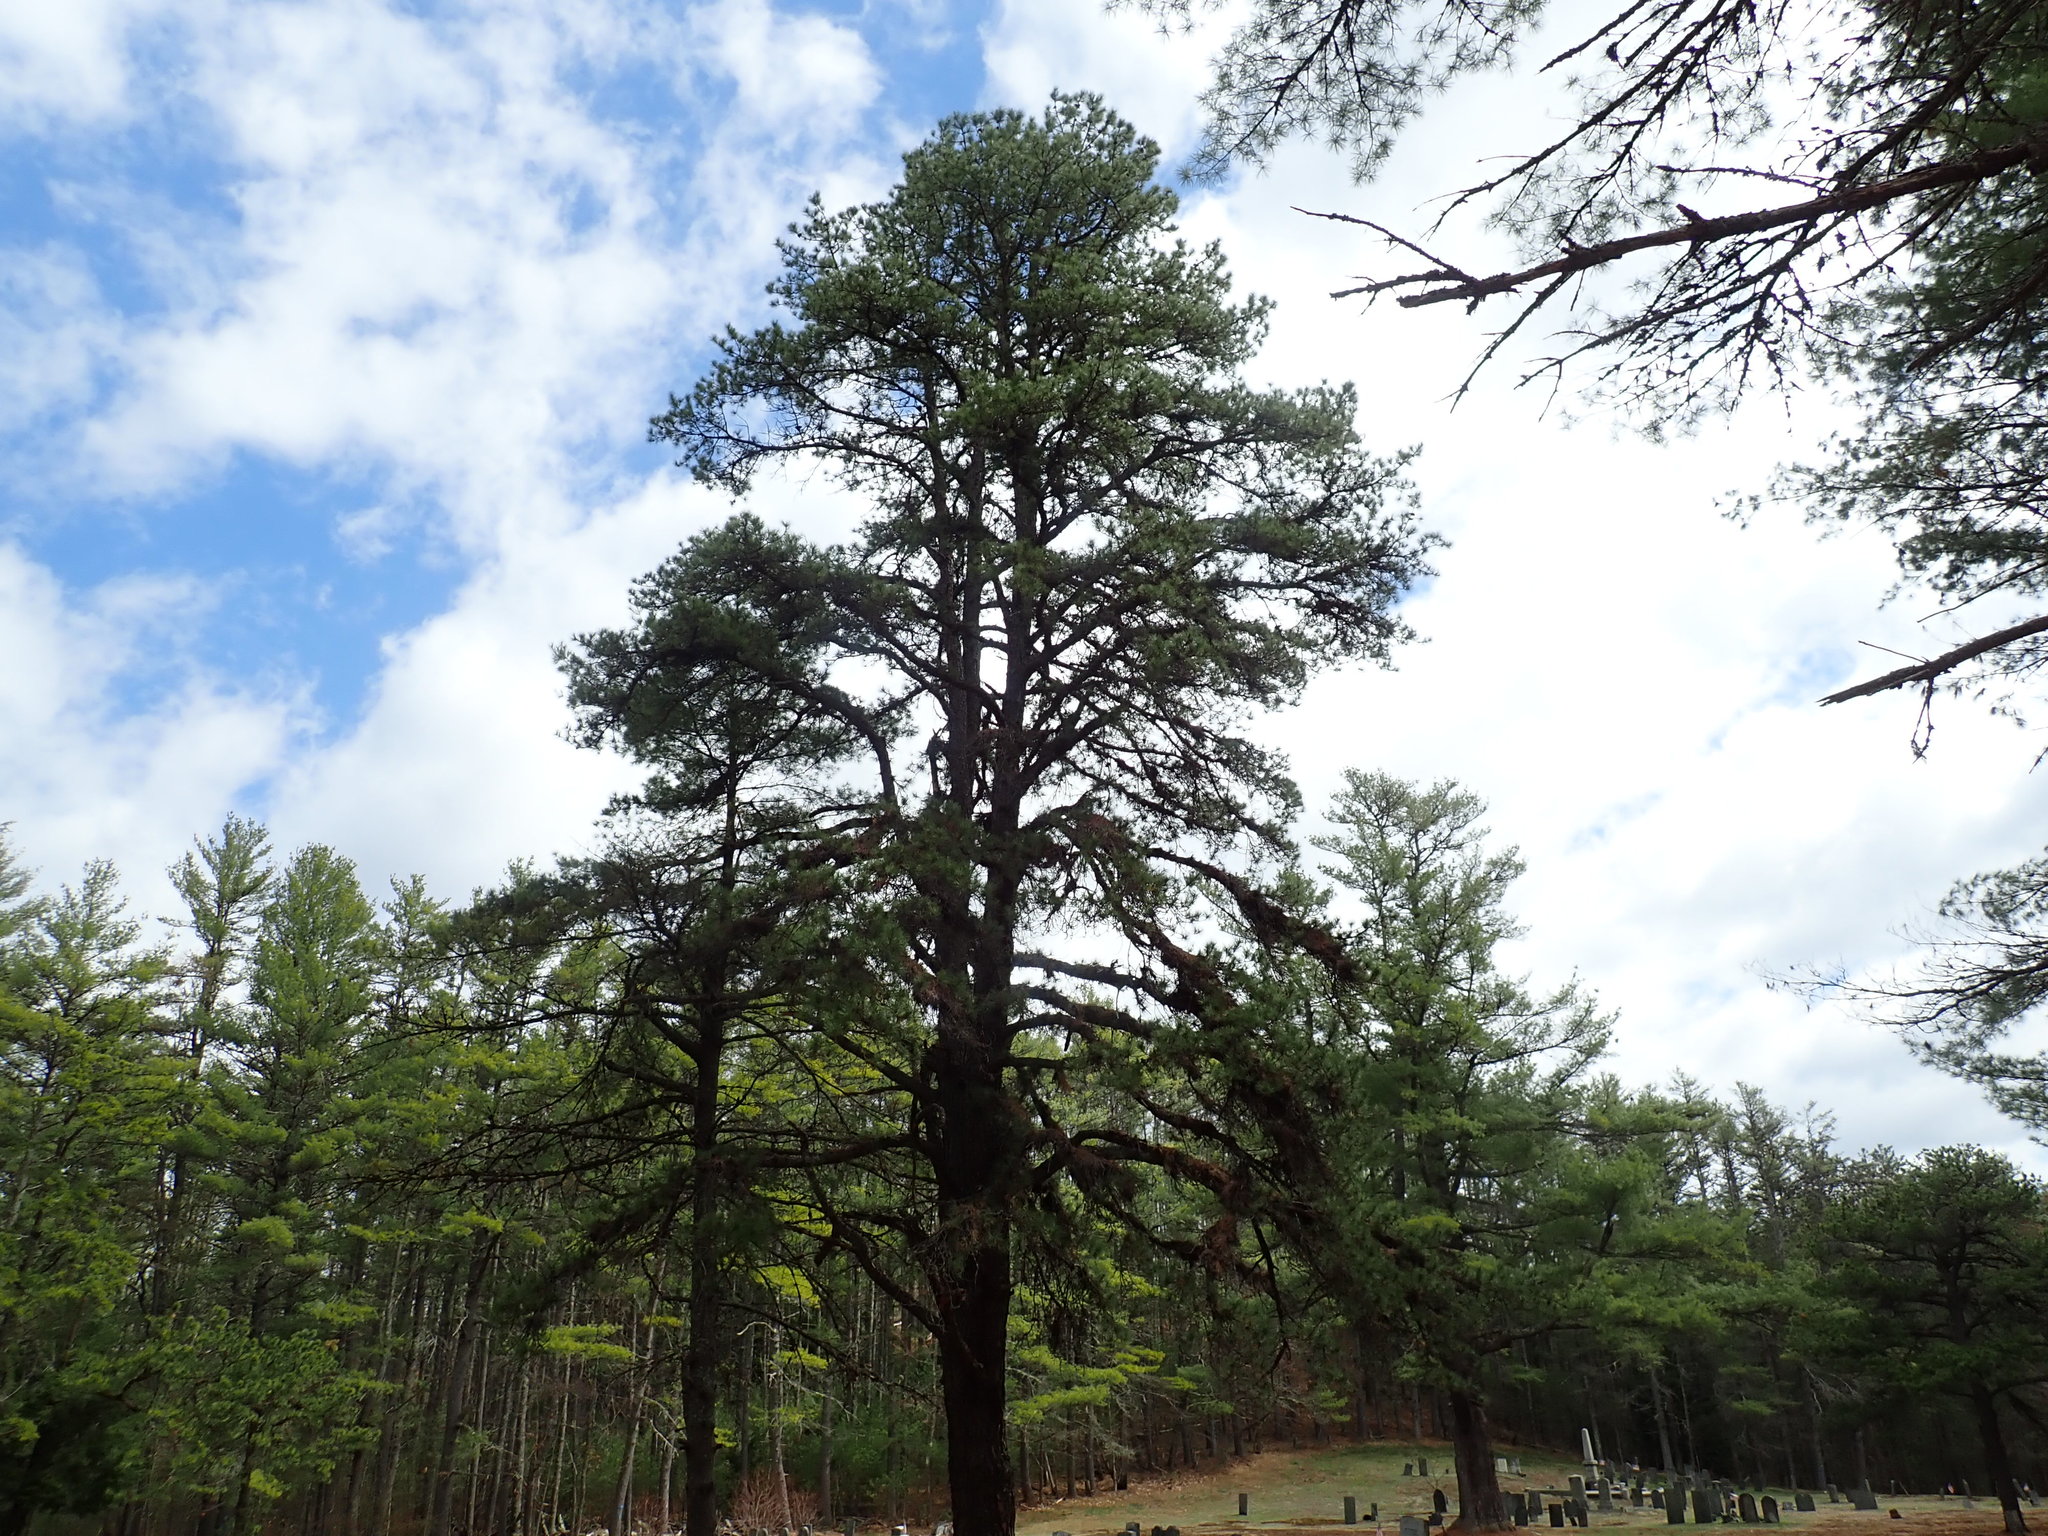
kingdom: Plantae
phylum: Tracheophyta
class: Pinopsida
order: Pinales
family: Pinaceae
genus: Pinus
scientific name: Pinus rigida
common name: Pitch pine
